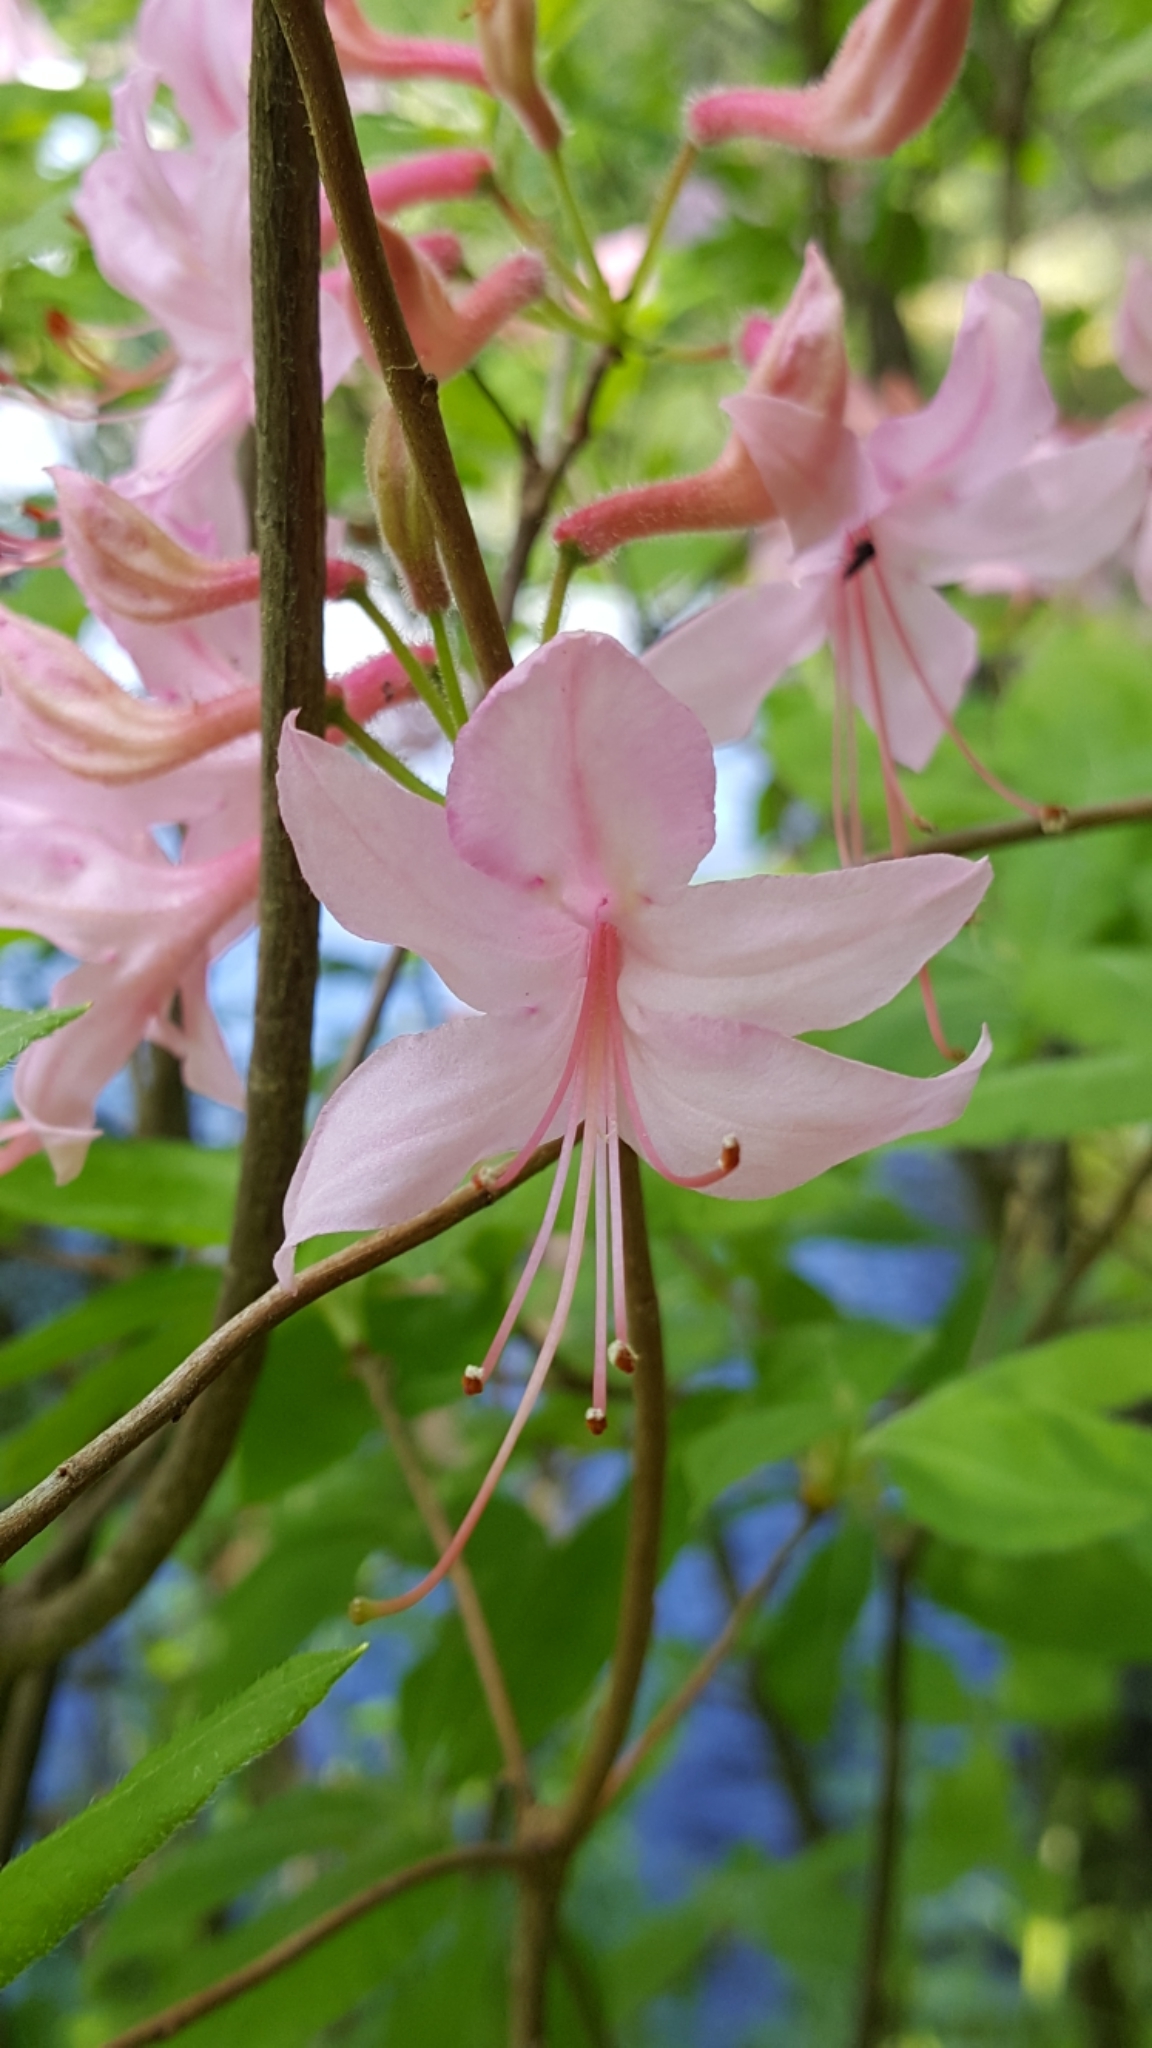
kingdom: Plantae
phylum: Tracheophyta
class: Magnoliopsida
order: Ericales
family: Ericaceae
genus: Rhododendron
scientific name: Rhododendron roseum
